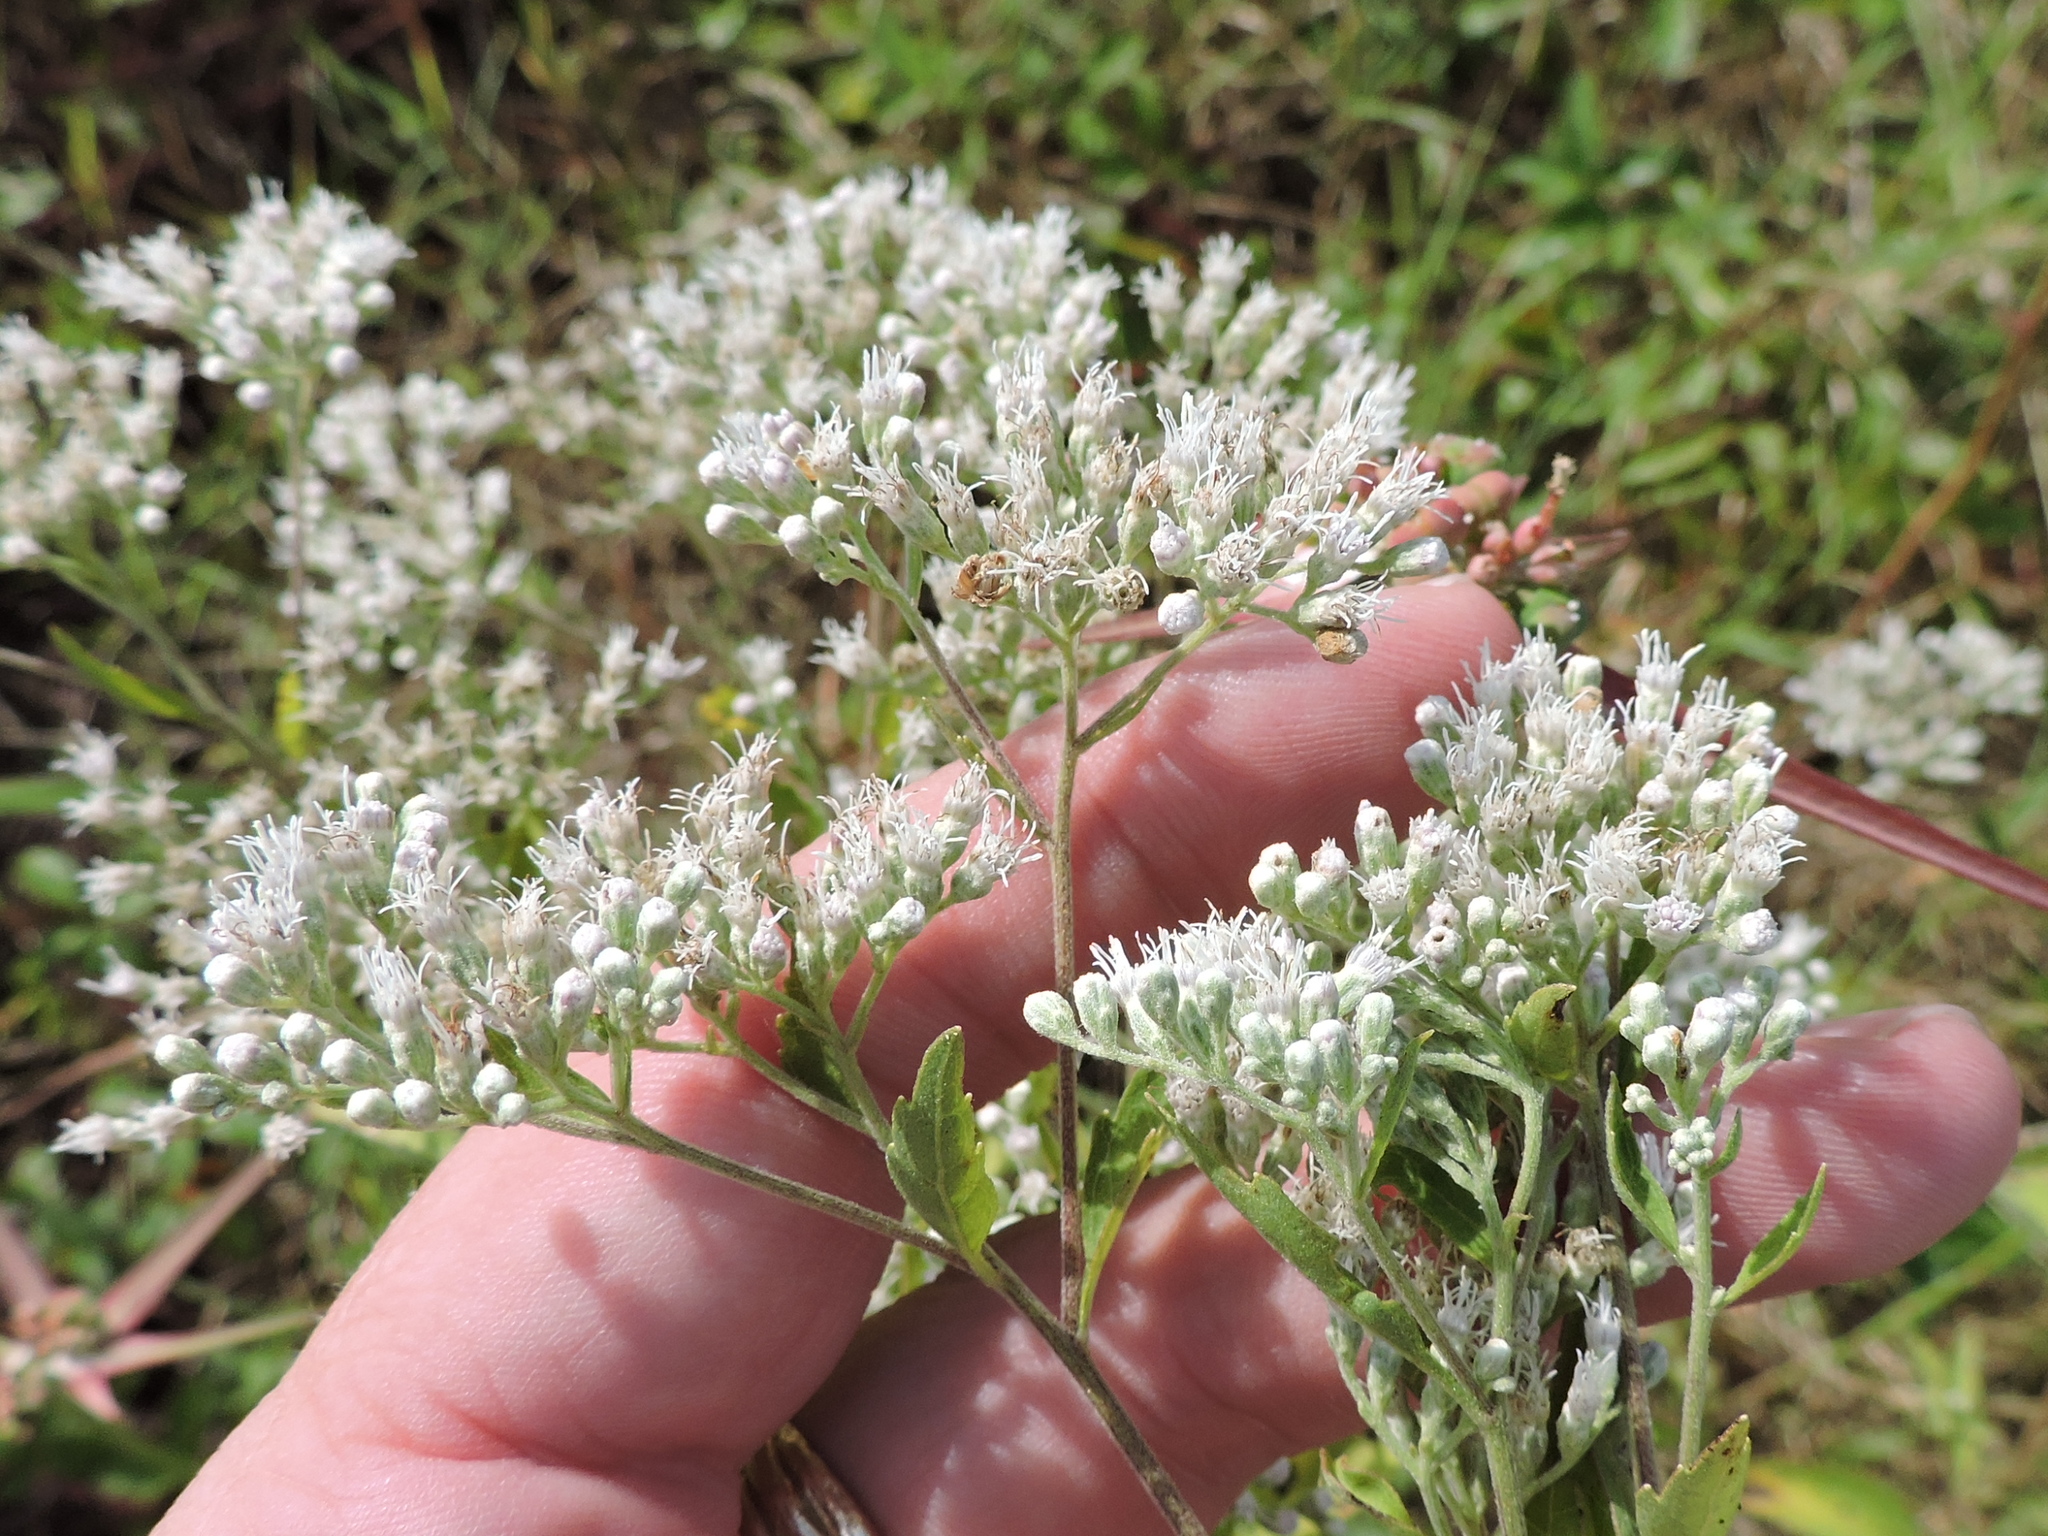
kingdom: Plantae
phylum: Tracheophyta
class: Magnoliopsida
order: Asterales
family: Asteraceae
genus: Eupatorium
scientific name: Eupatorium serotinum
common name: Late boneset
